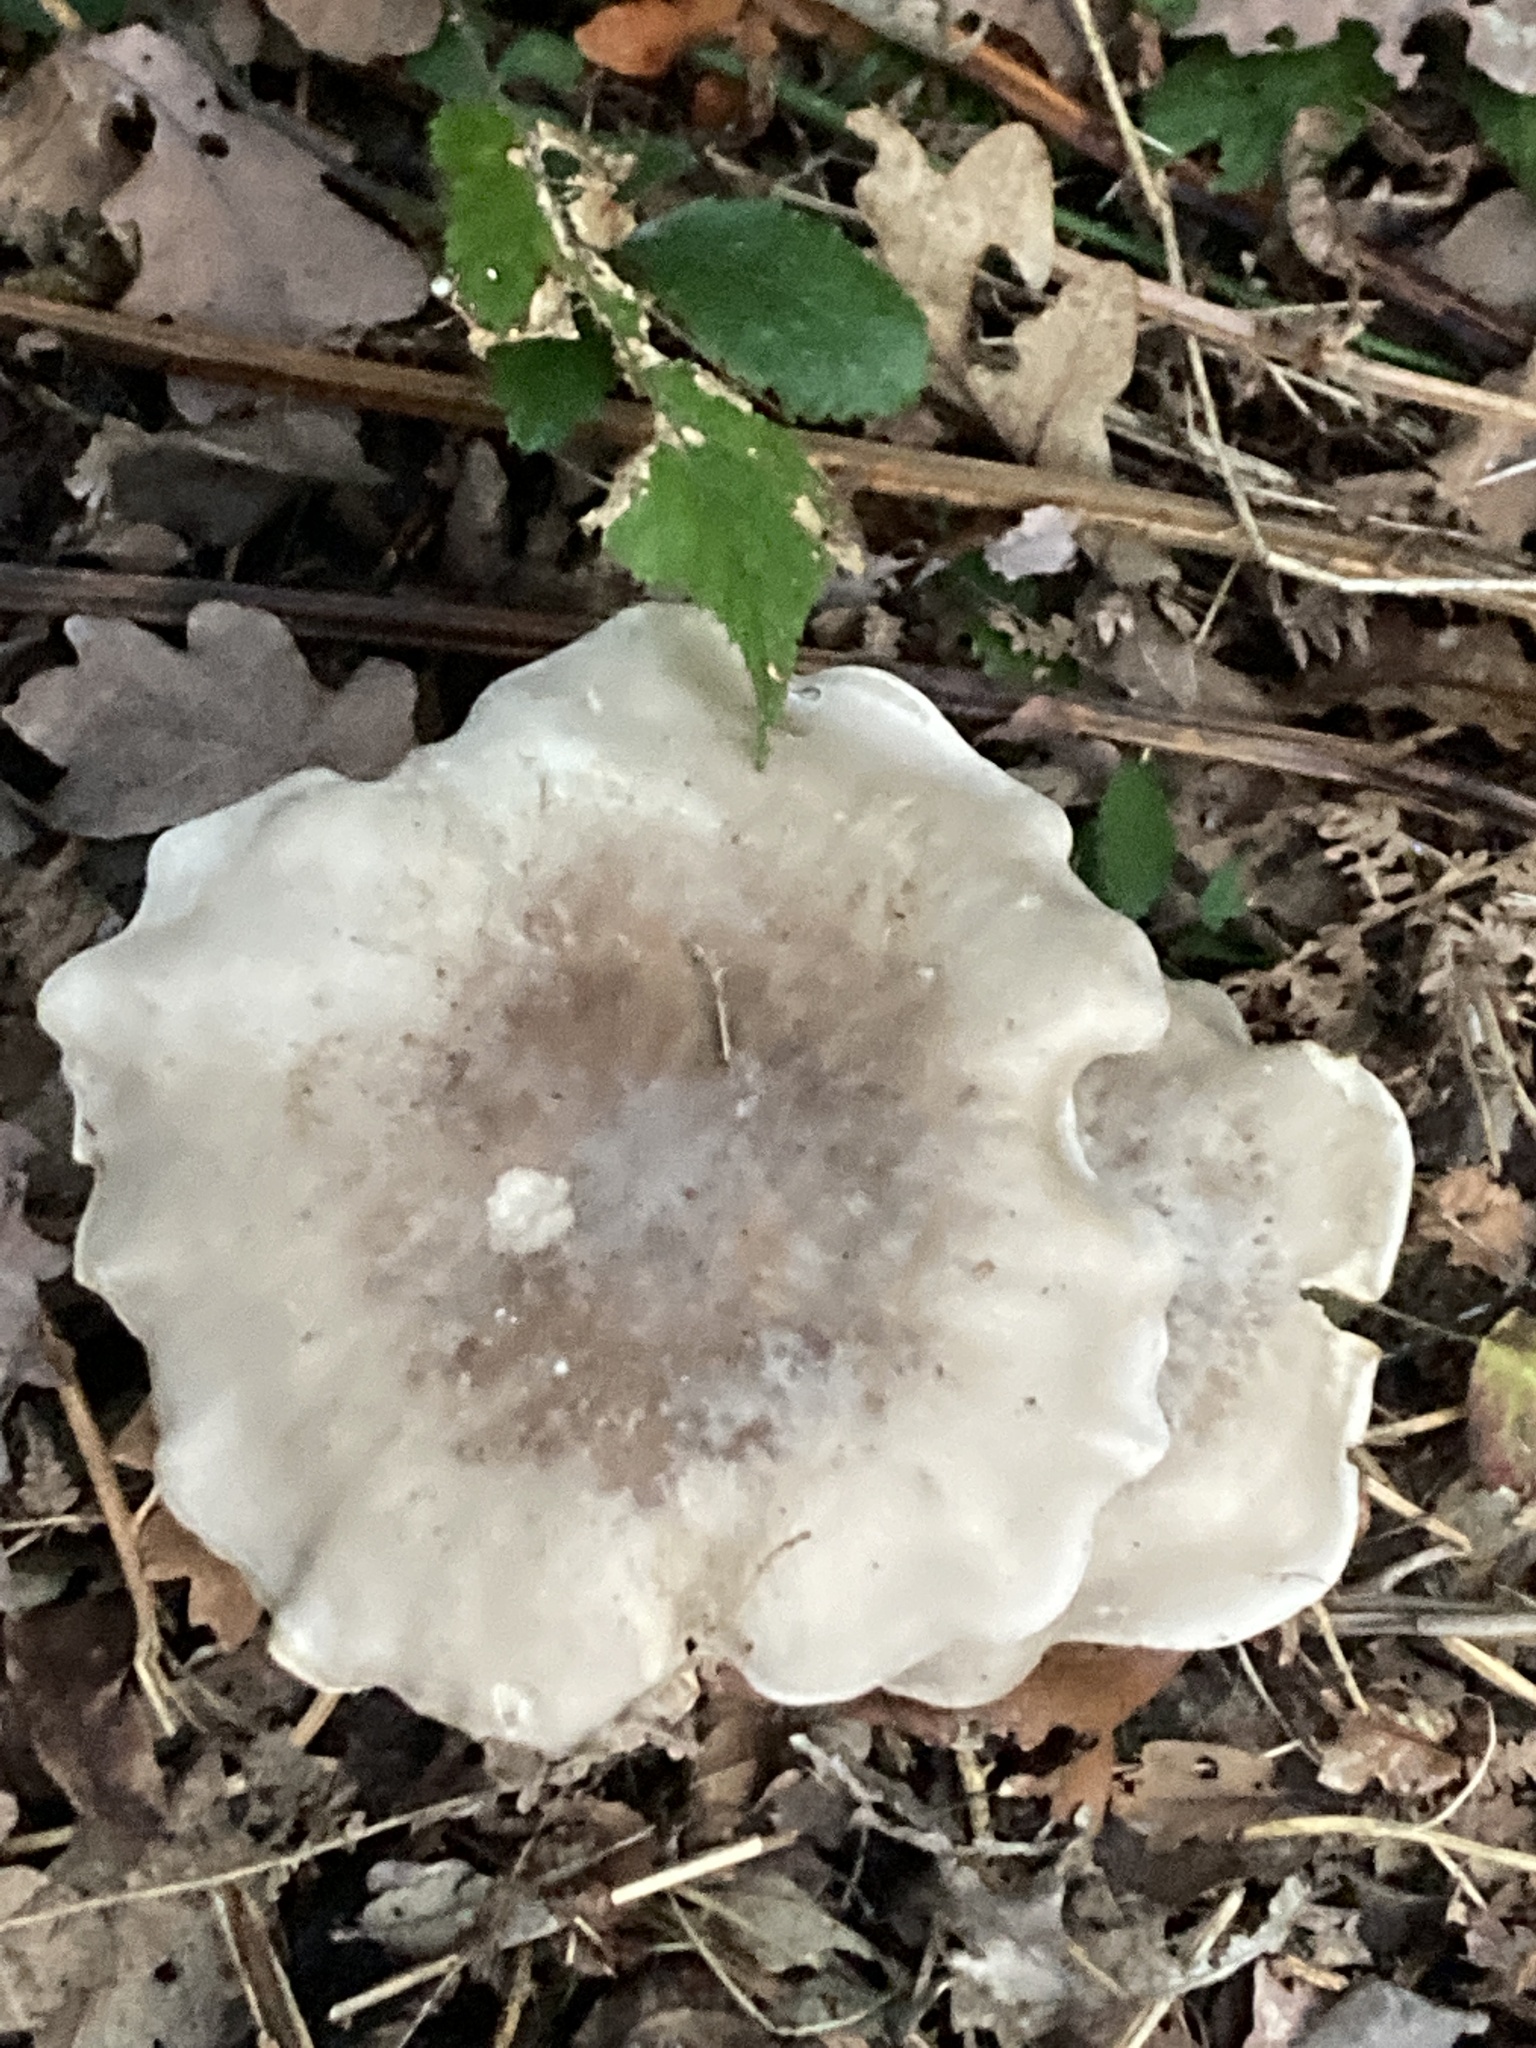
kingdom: Fungi
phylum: Basidiomycota
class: Agaricomycetes
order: Agaricales
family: Tricholomataceae
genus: Clitocybe
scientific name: Clitocybe nebularis
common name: Clouded agaric
